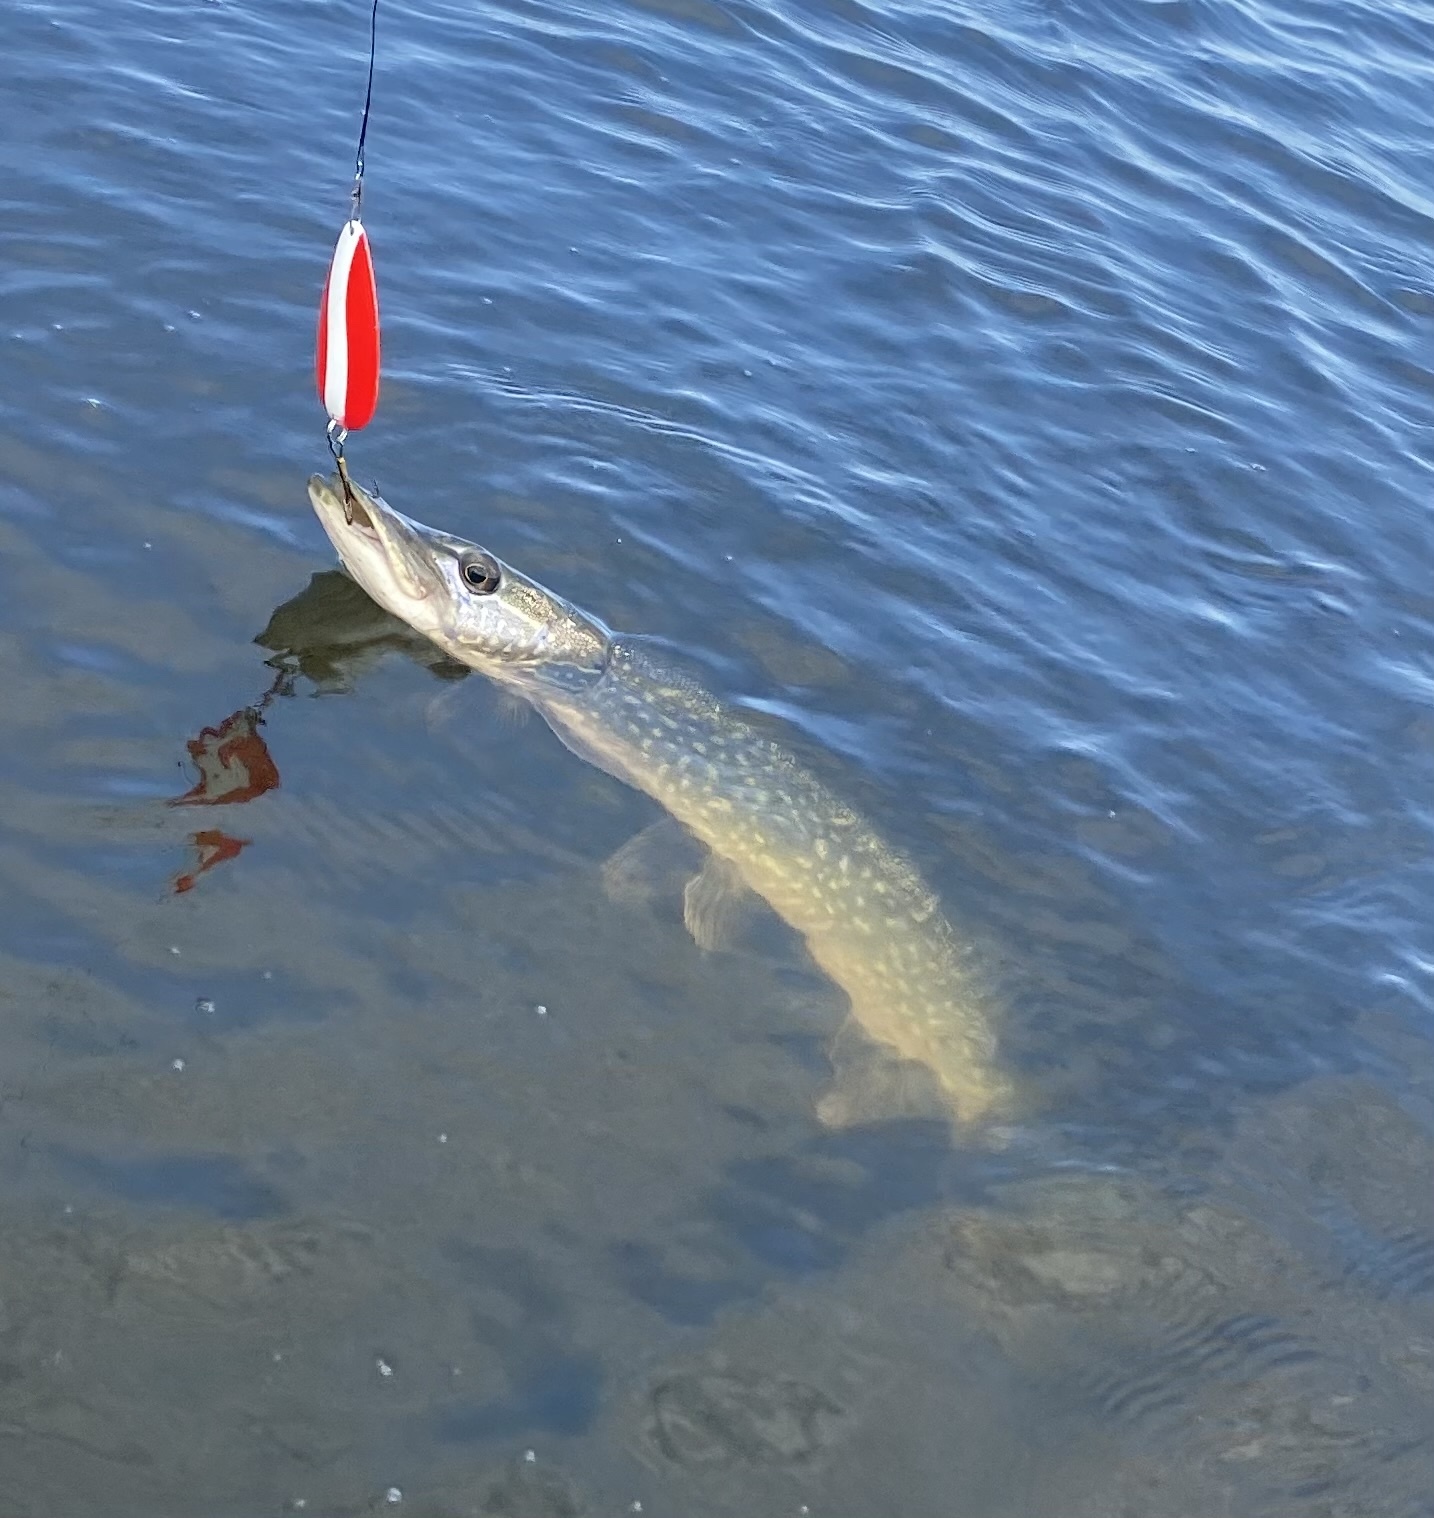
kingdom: Animalia
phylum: Chordata
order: Esociformes
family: Esocidae
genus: Esox
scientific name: Esox lucius
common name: Northern pike
